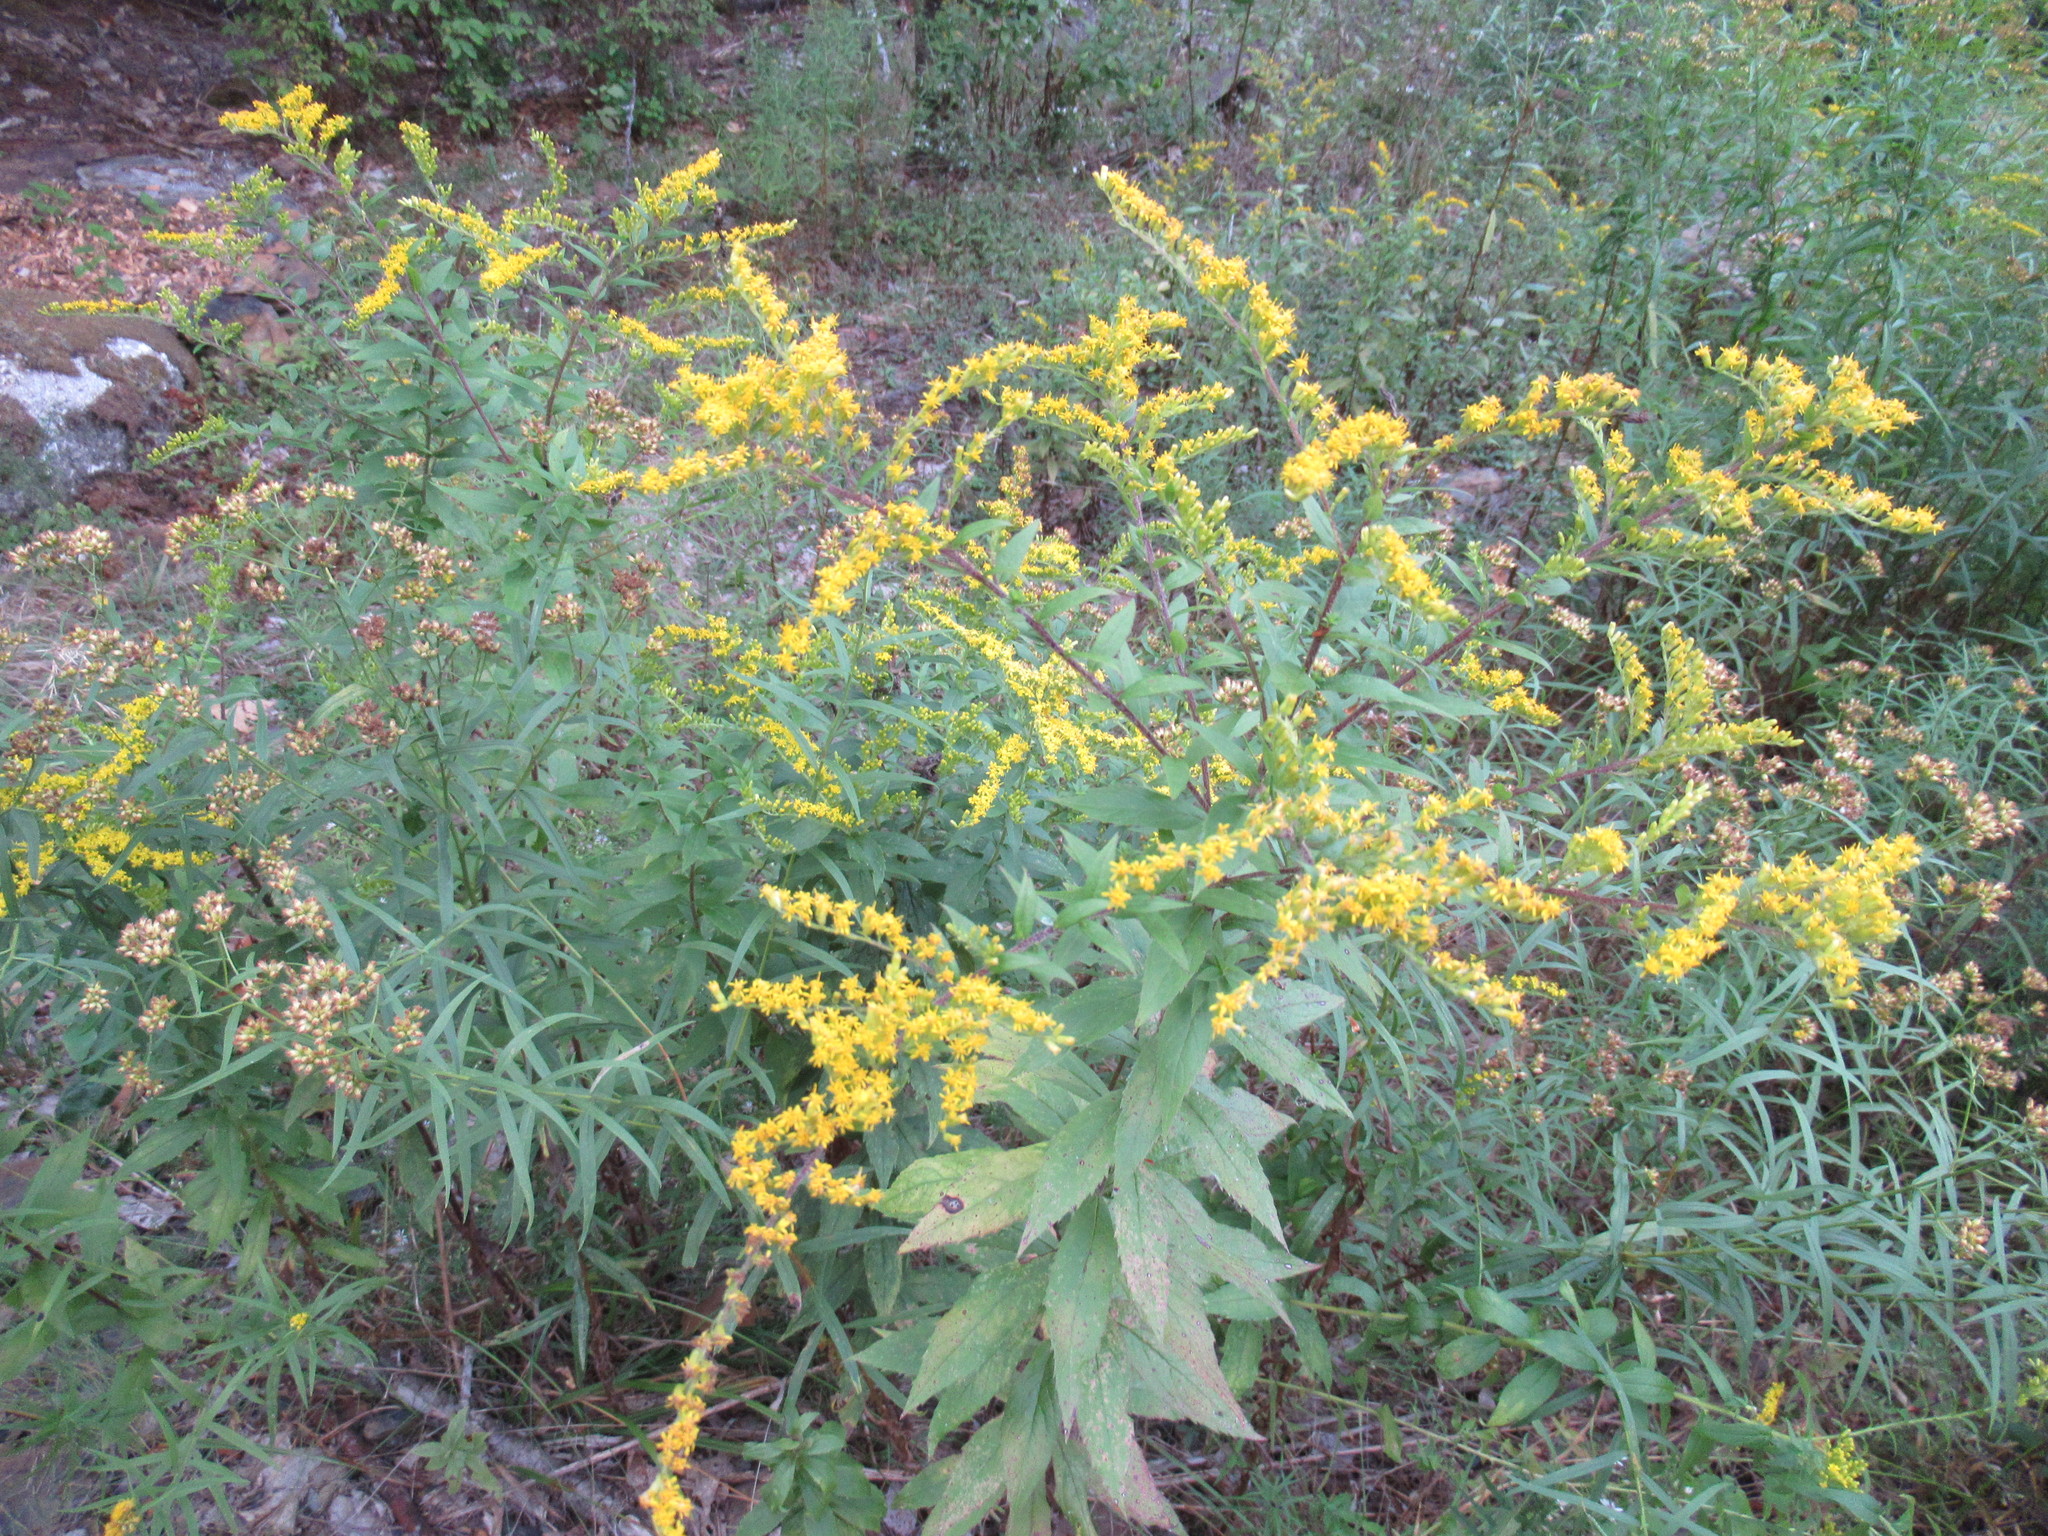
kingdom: Plantae
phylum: Tracheophyta
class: Magnoliopsida
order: Asterales
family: Asteraceae
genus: Solidago
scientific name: Solidago rugosa
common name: Rough-stemmed goldenrod
